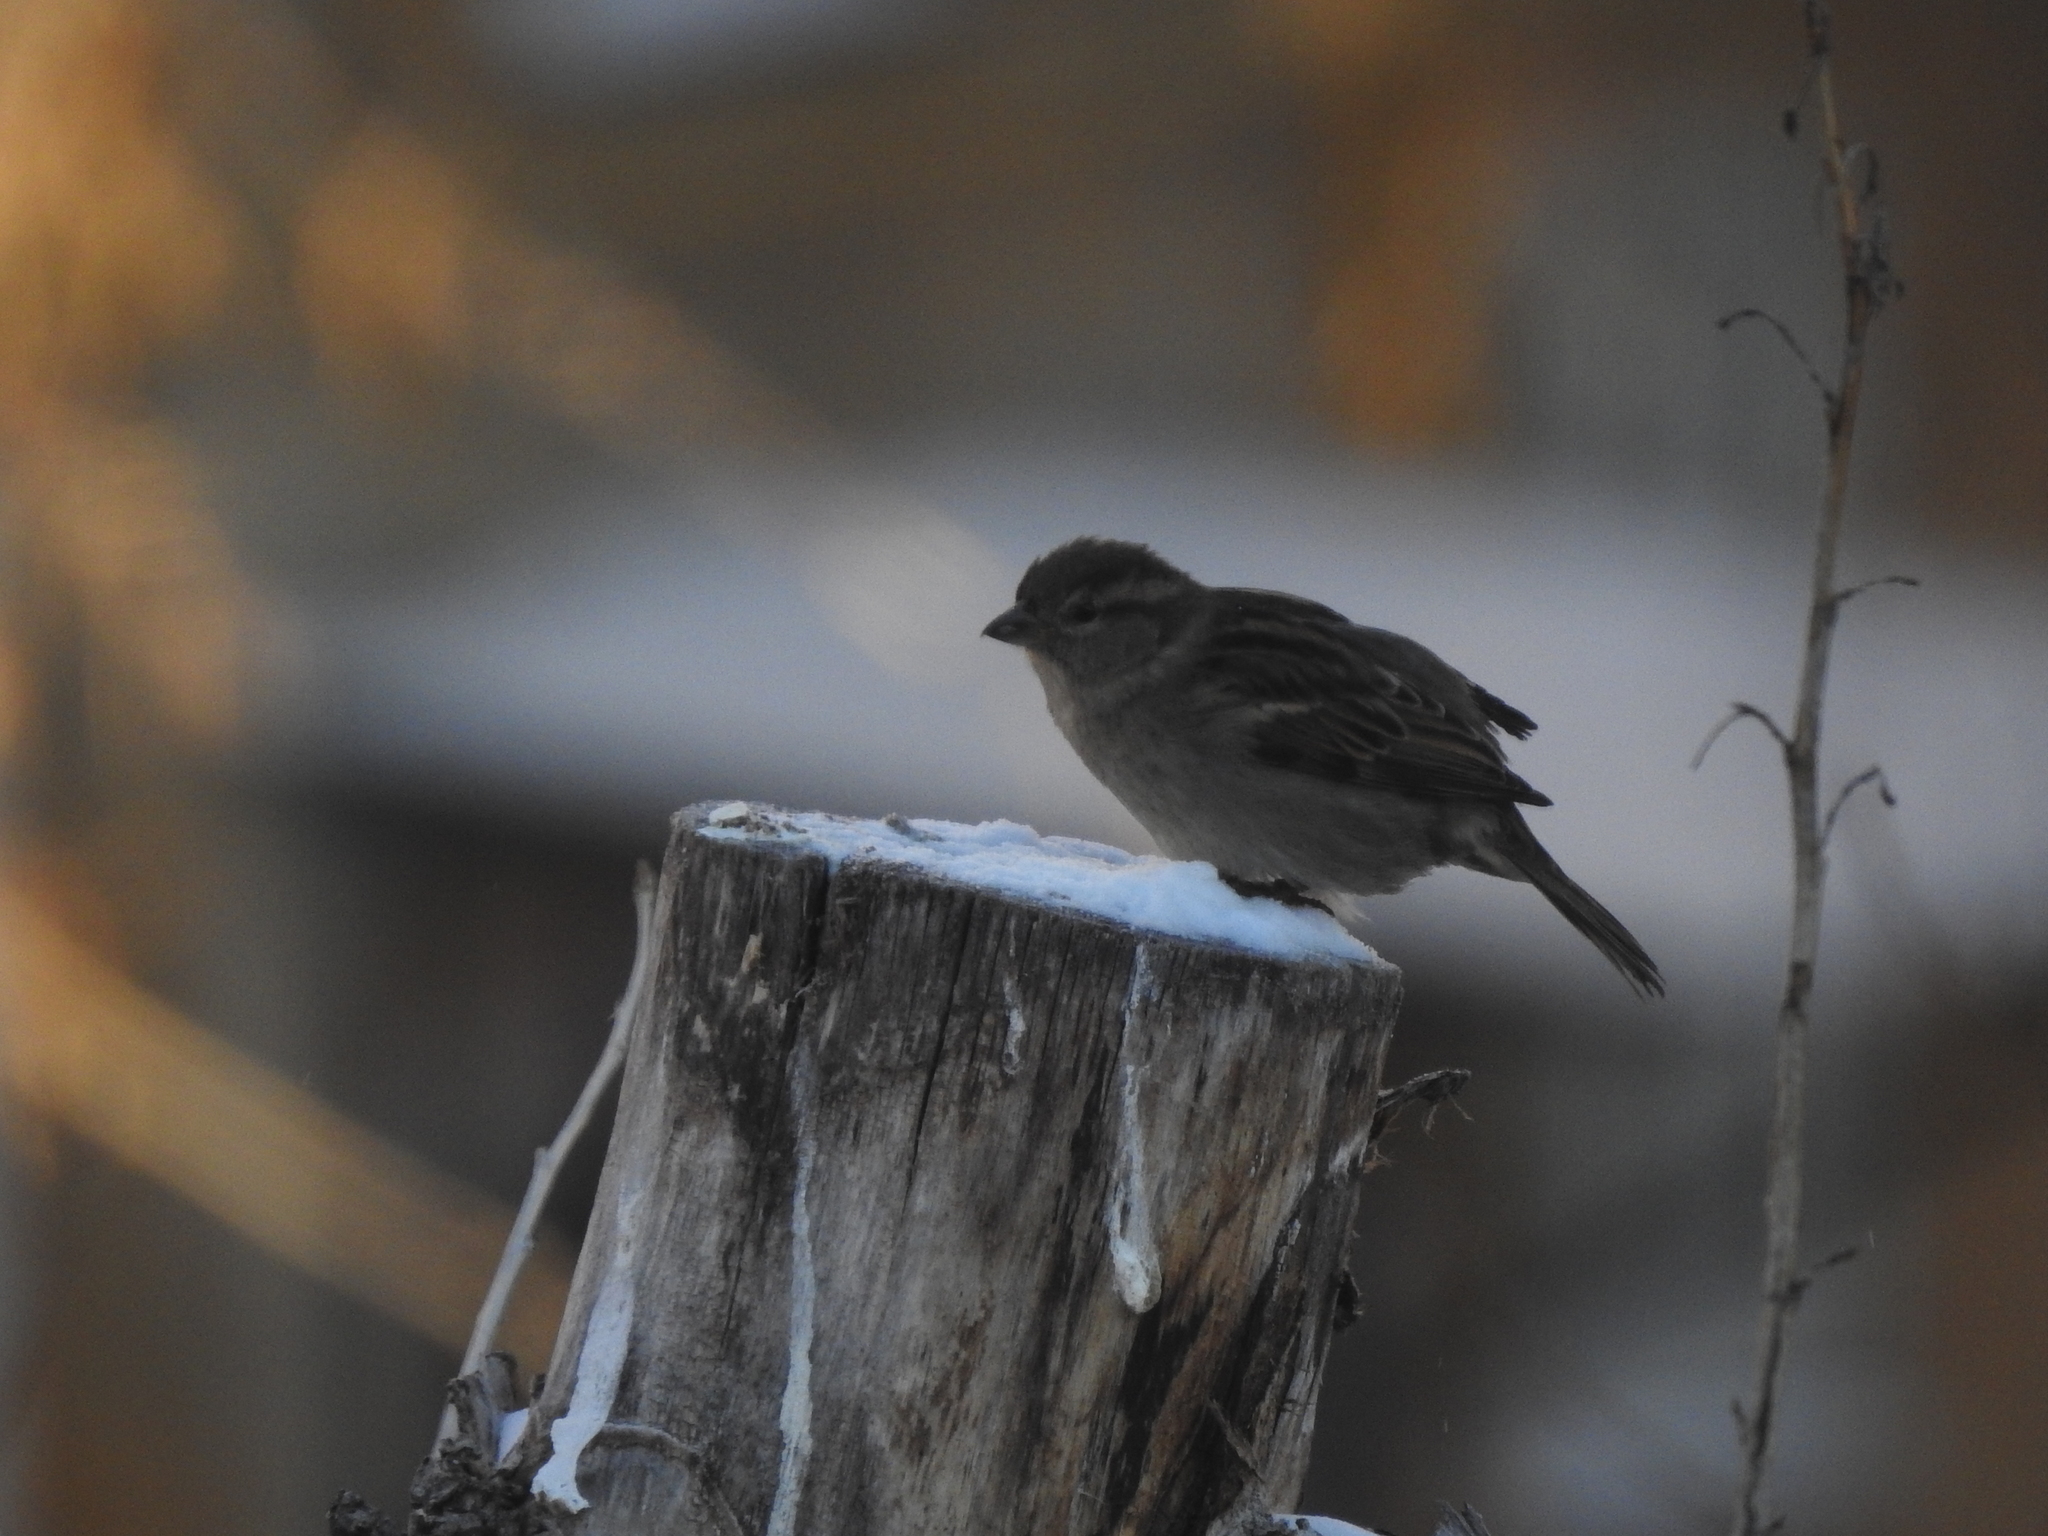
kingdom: Animalia
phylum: Chordata
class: Aves
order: Passeriformes
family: Passeridae
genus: Passer
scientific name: Passer domesticus
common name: House sparrow
